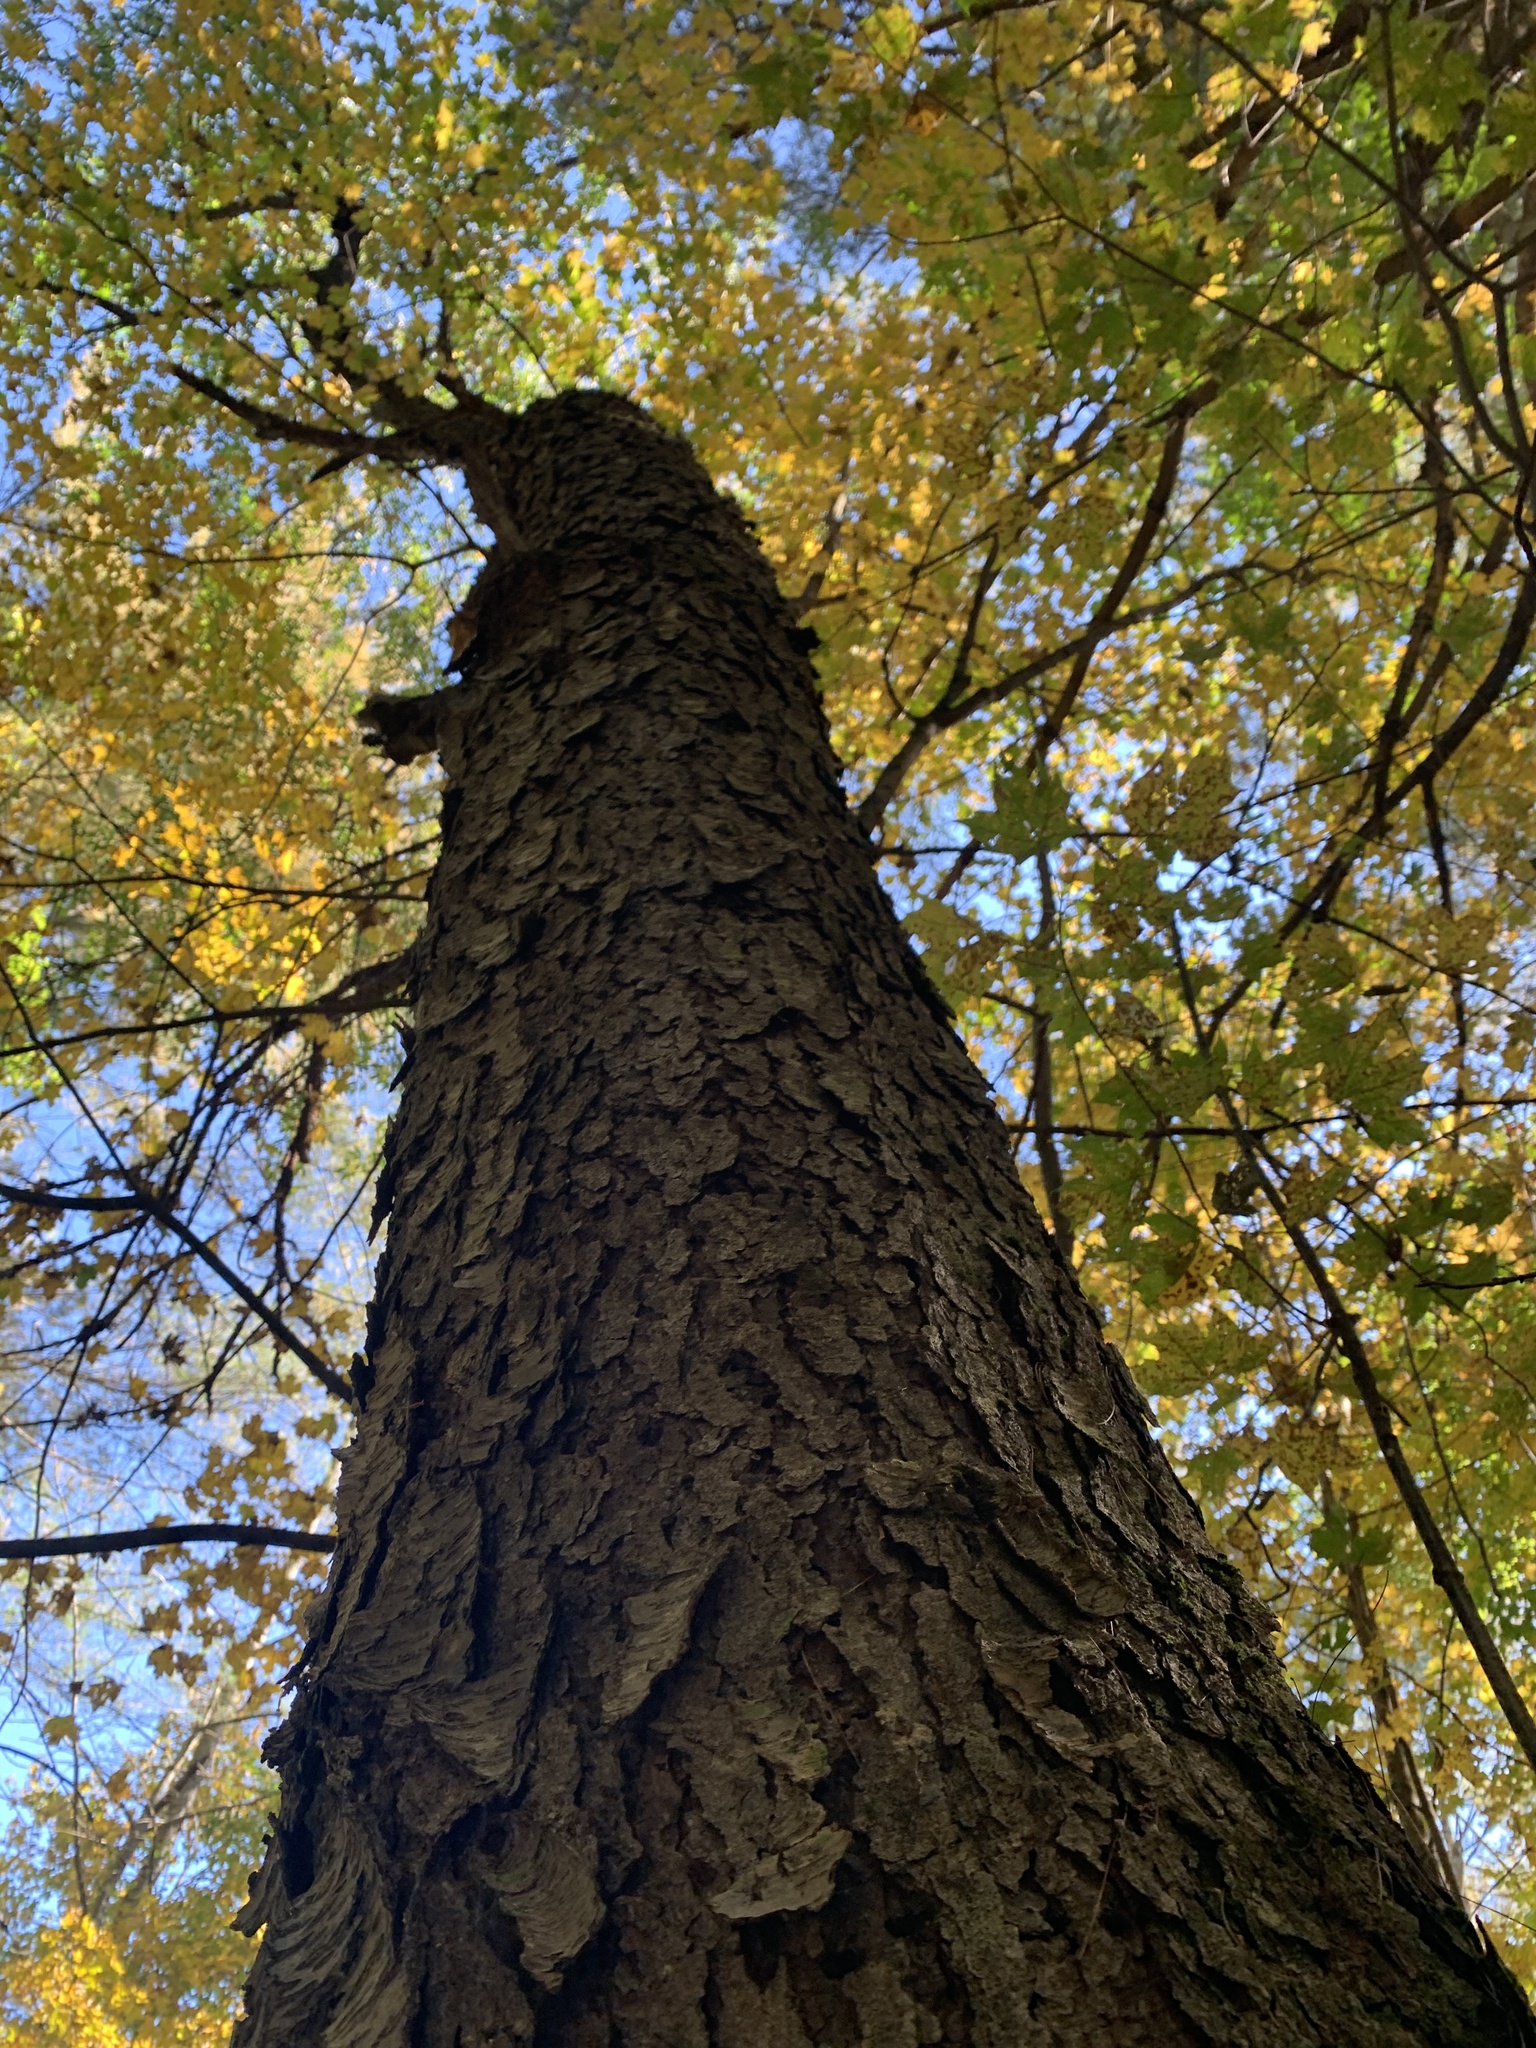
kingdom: Plantae
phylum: Tracheophyta
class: Magnoliopsida
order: Rosales
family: Rosaceae
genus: Prunus
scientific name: Prunus serotina
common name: Black cherry
